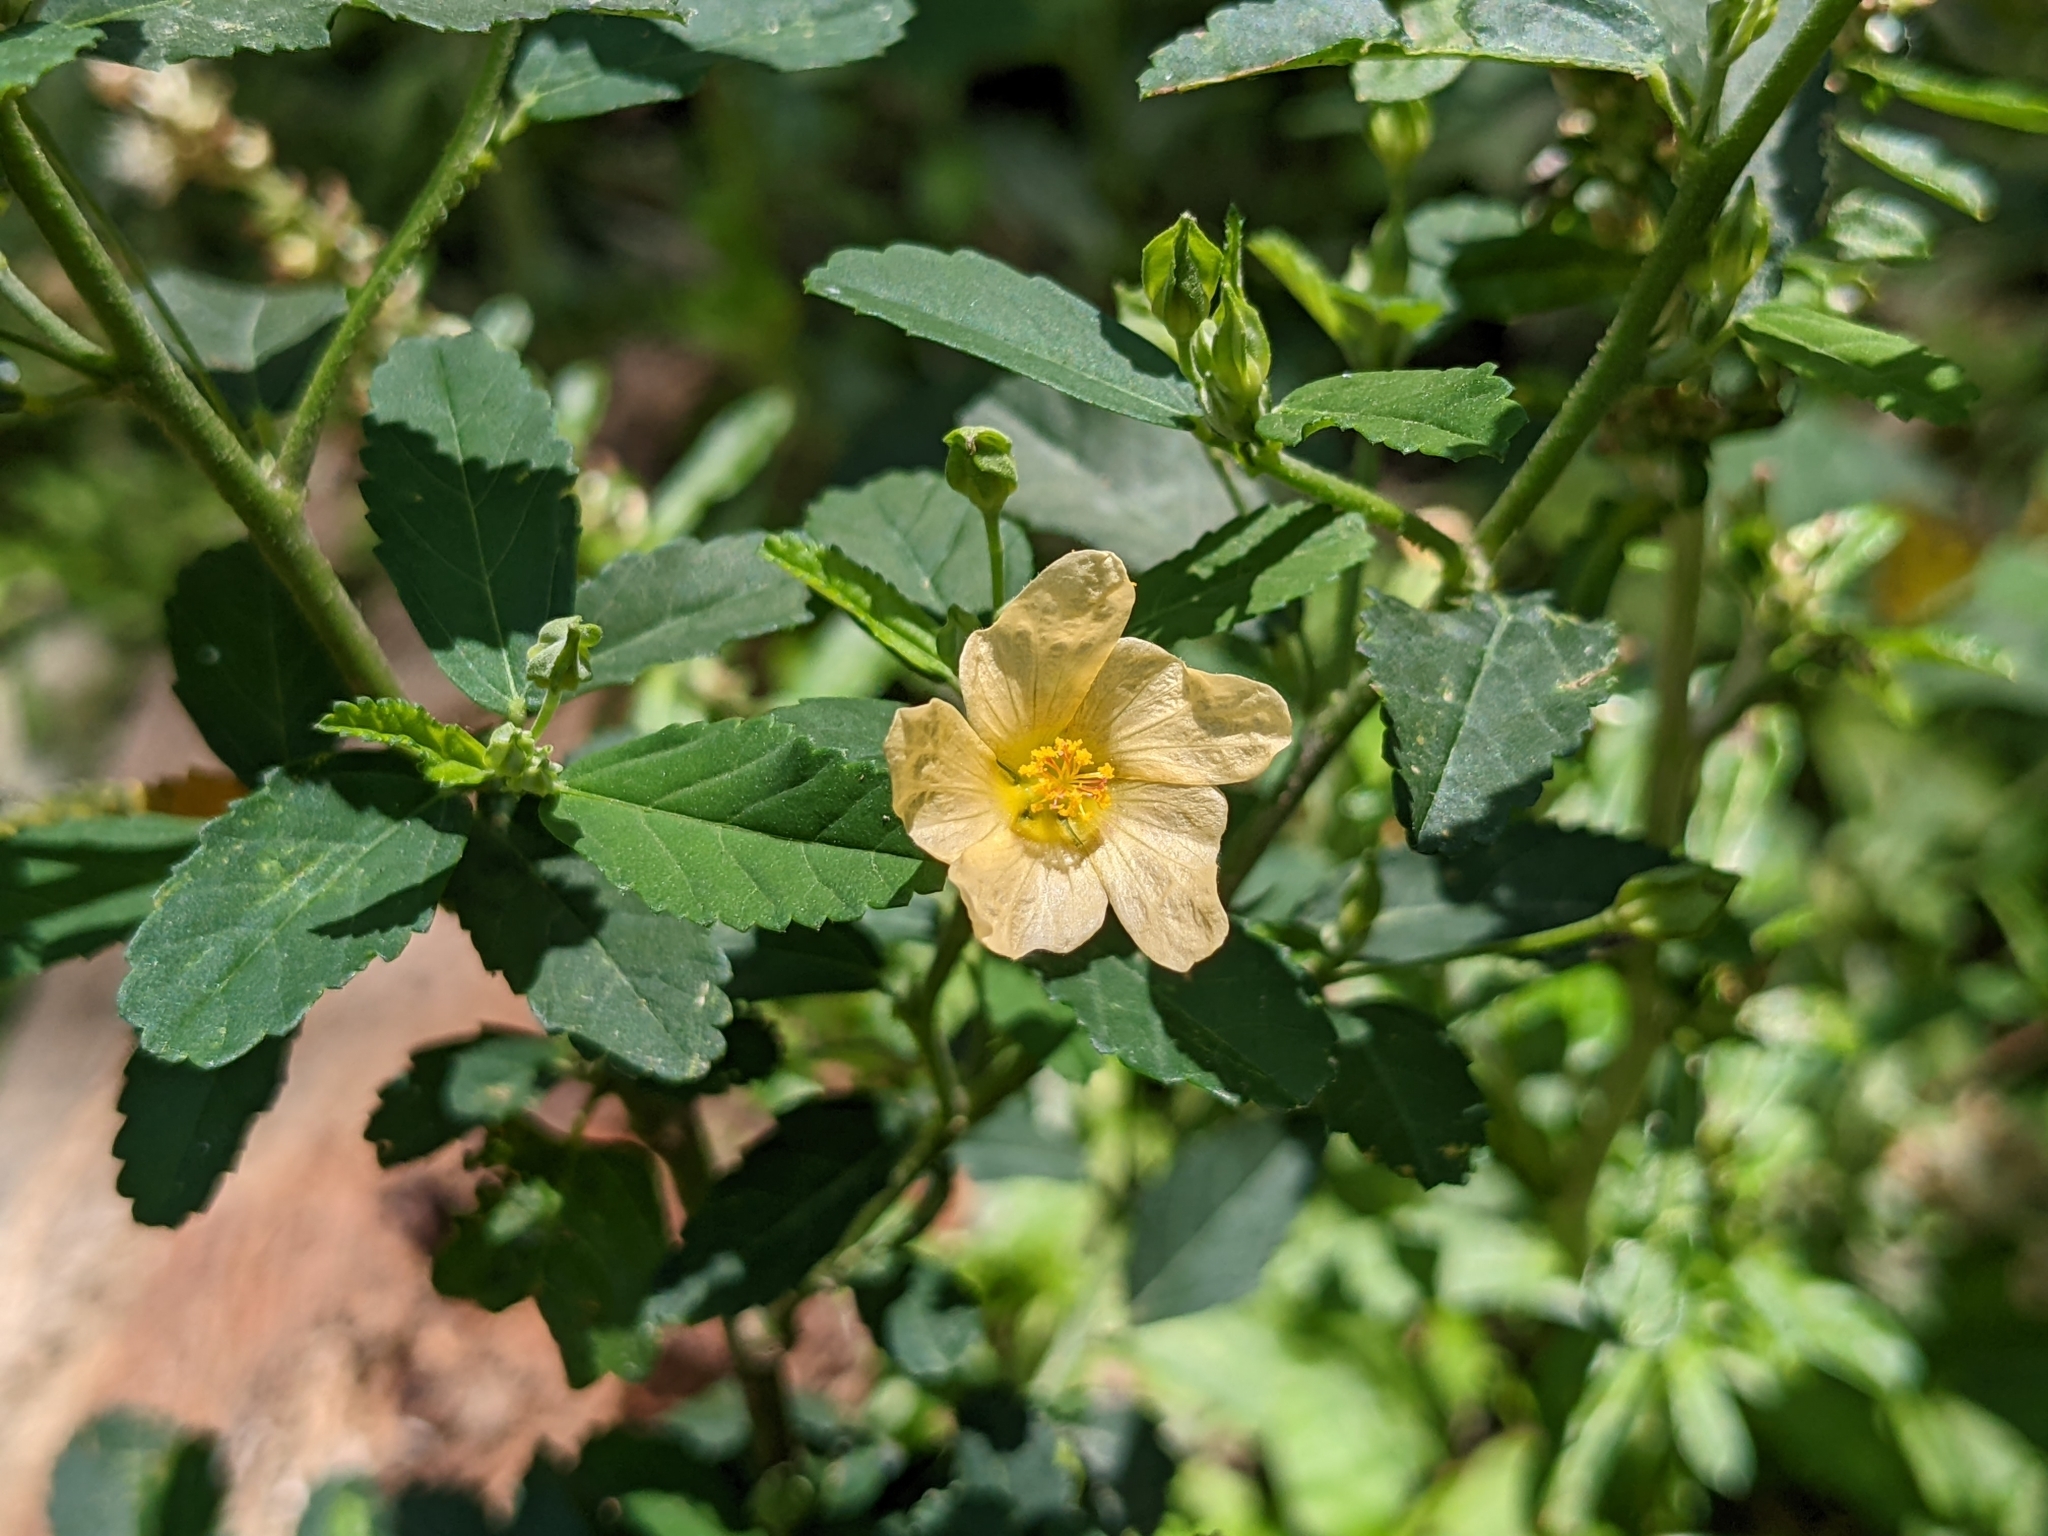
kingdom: Plantae
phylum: Tracheophyta
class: Magnoliopsida
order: Malvales
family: Malvaceae
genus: Sida
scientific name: Sida rhombifolia
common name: Queensland-hemp
